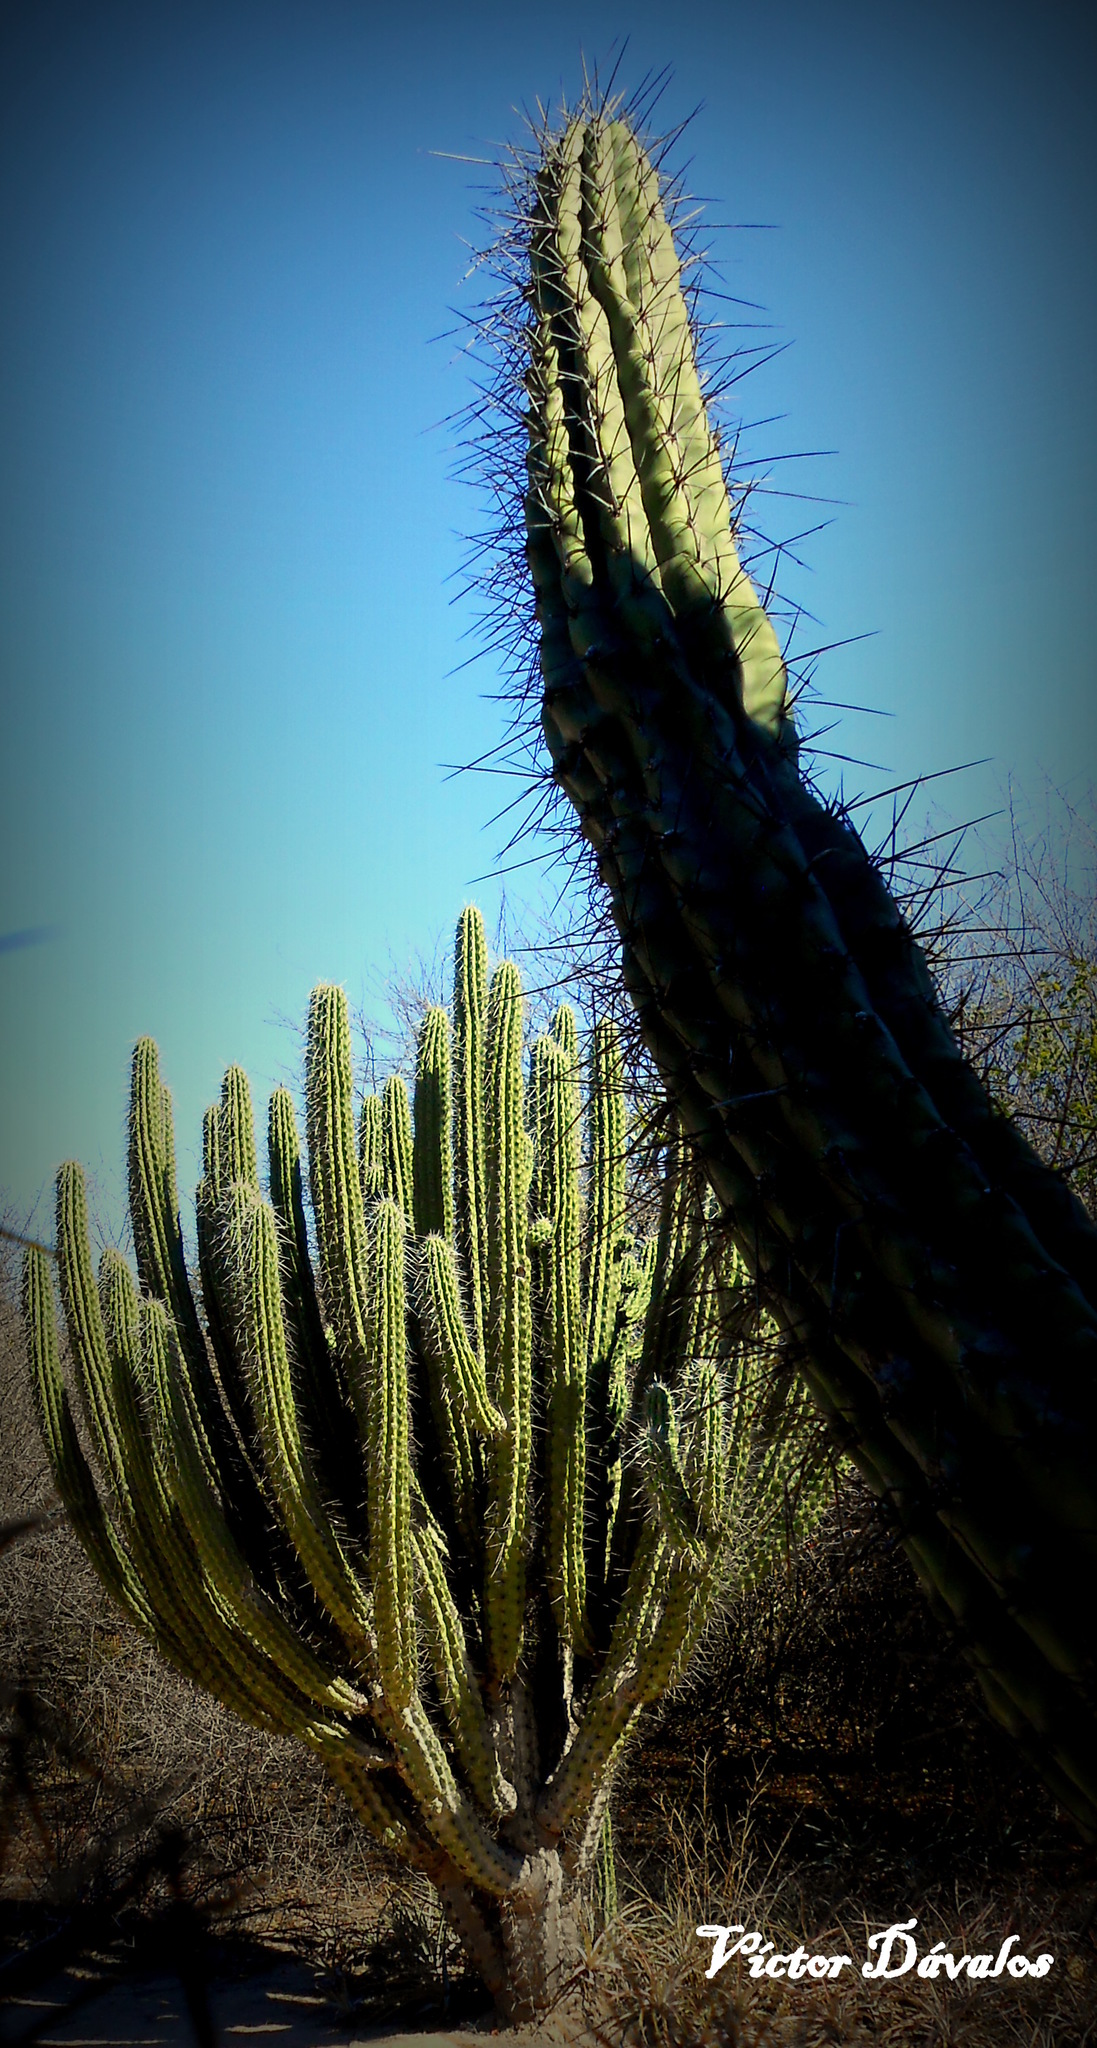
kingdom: Plantae
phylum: Tracheophyta
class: Magnoliopsida
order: Caryophyllales
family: Cactaceae
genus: Stetsonia
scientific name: Stetsonia coryne
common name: Toothpick cactus
